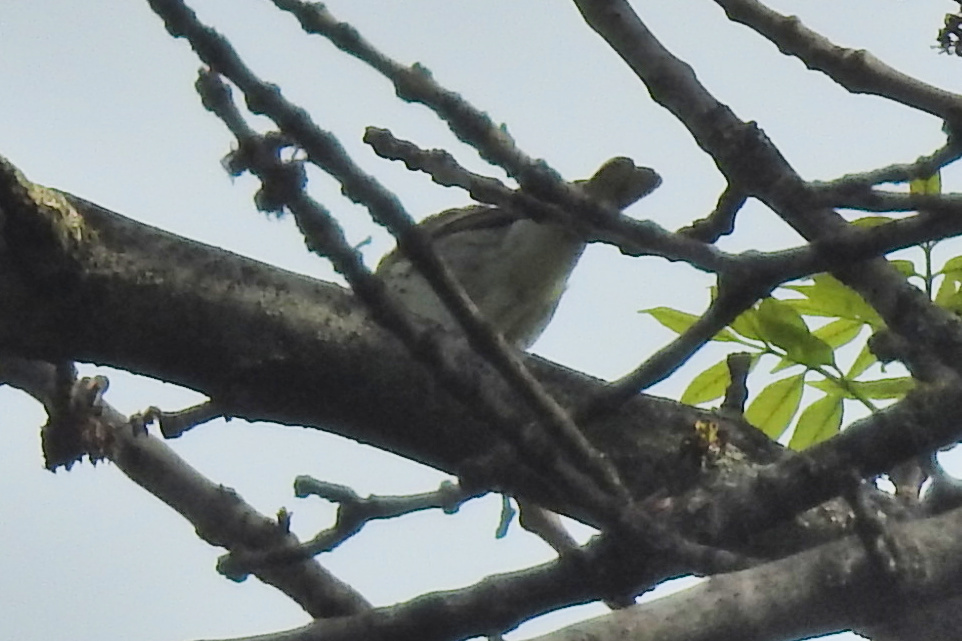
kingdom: Animalia
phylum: Chordata
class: Aves
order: Passeriformes
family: Parulidae
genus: Setophaga
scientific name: Setophaga striata
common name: Blackpoll warbler
